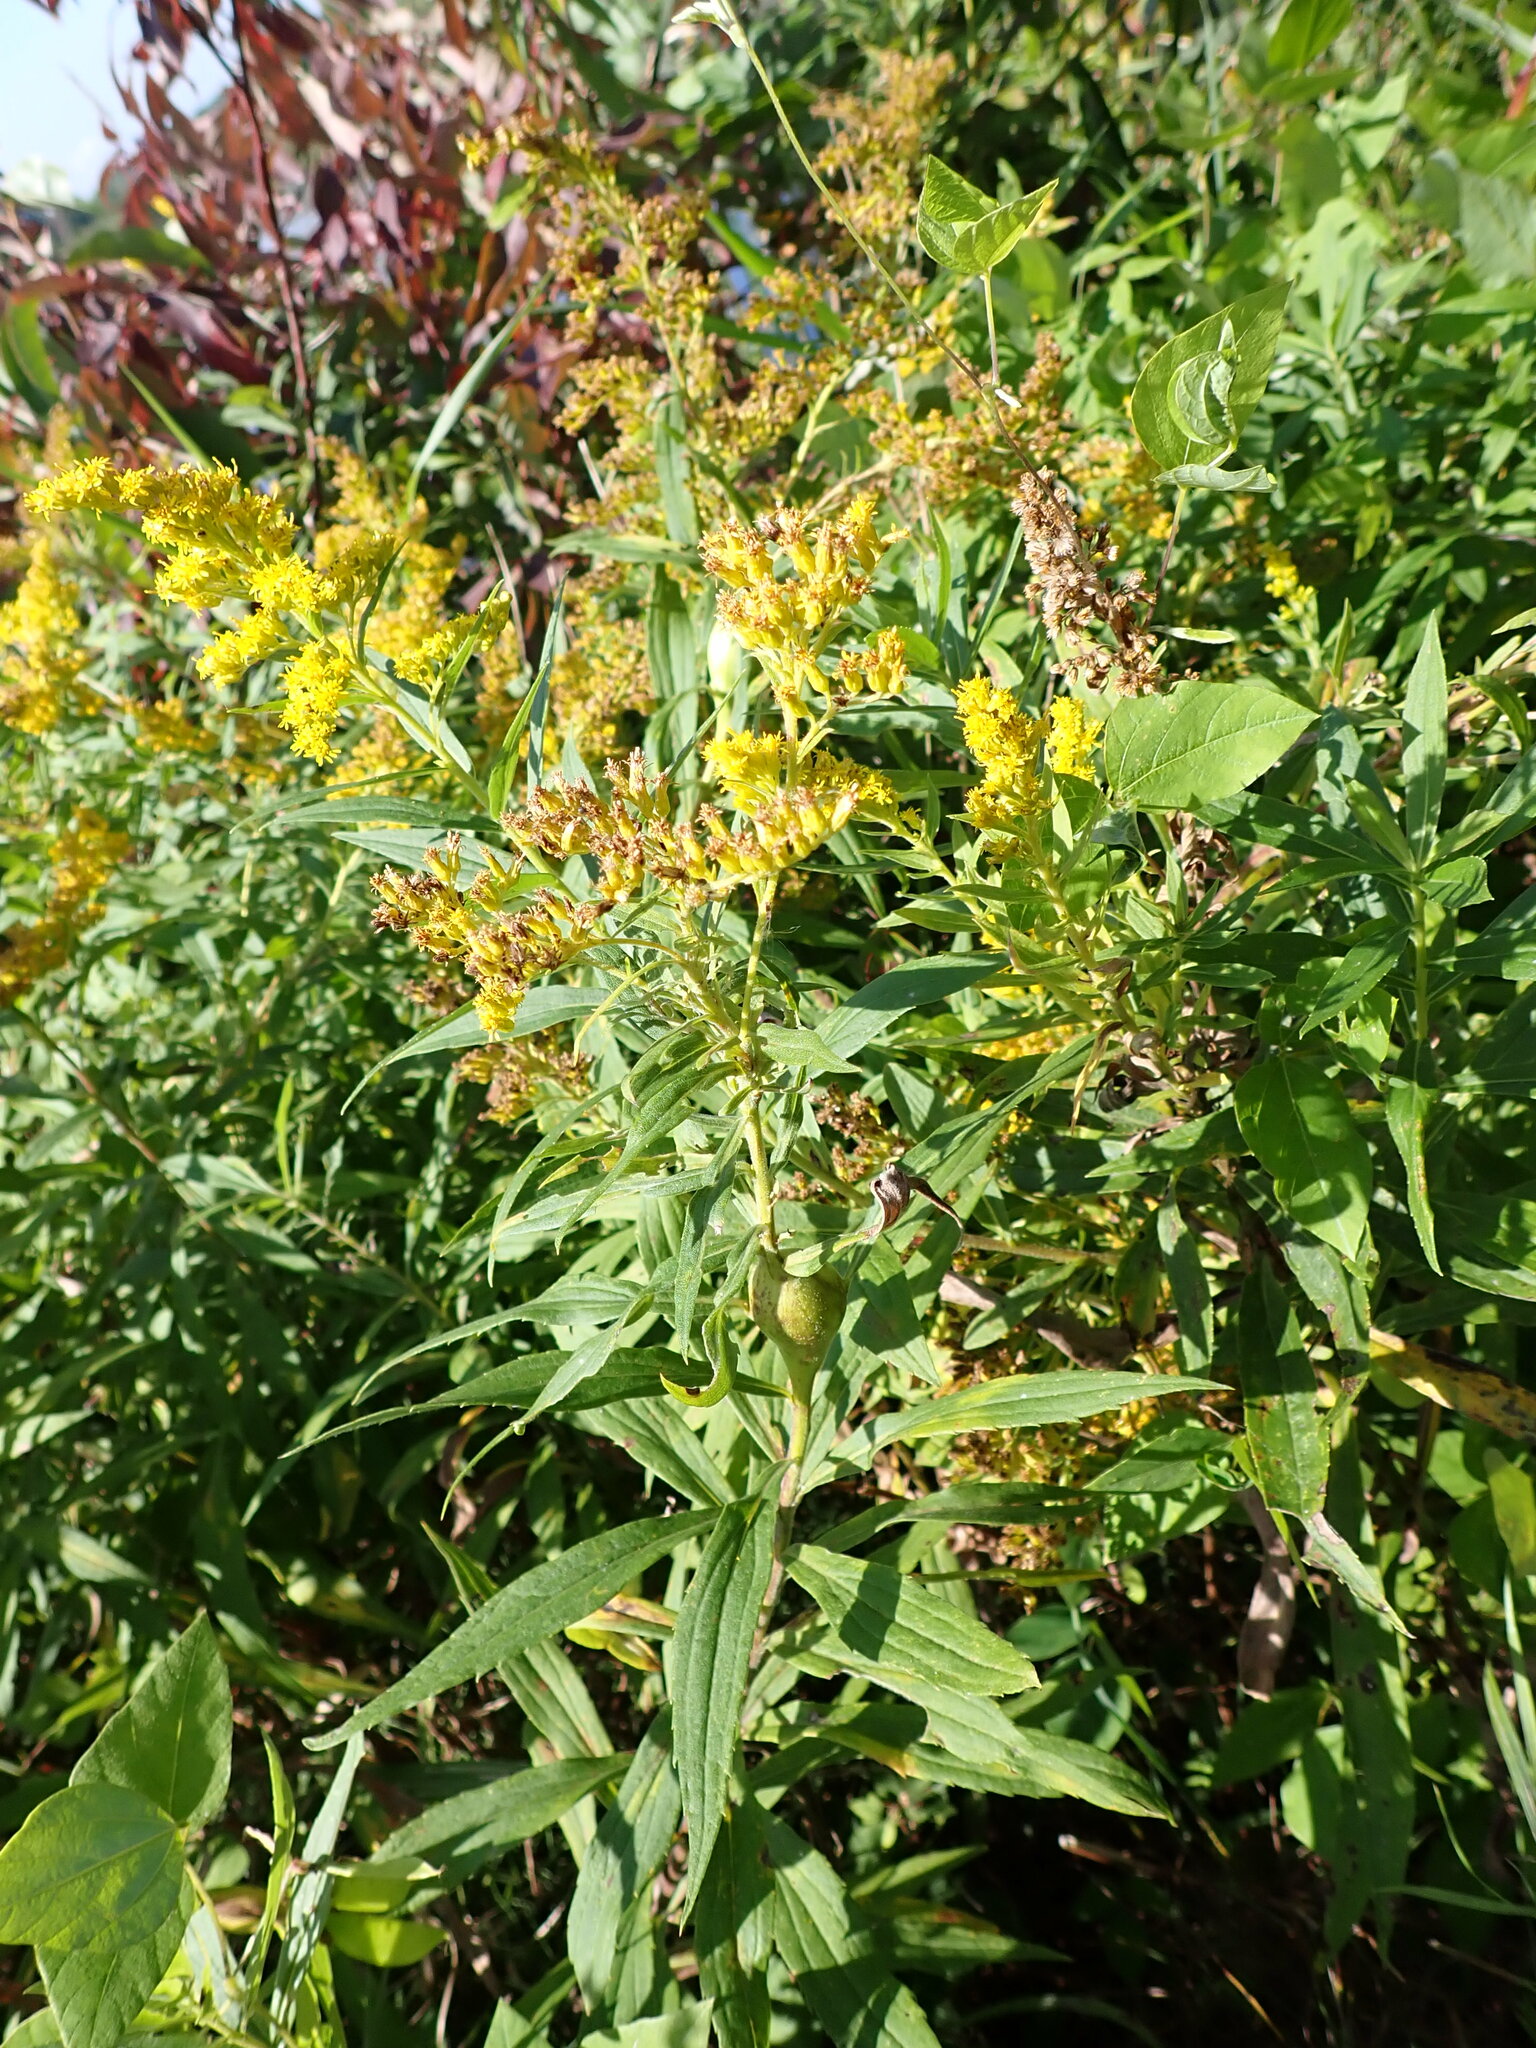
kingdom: Animalia
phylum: Arthropoda
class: Insecta
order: Diptera
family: Tephritidae
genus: Eurosta
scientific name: Eurosta solidaginis
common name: Goldenrod gall fly
